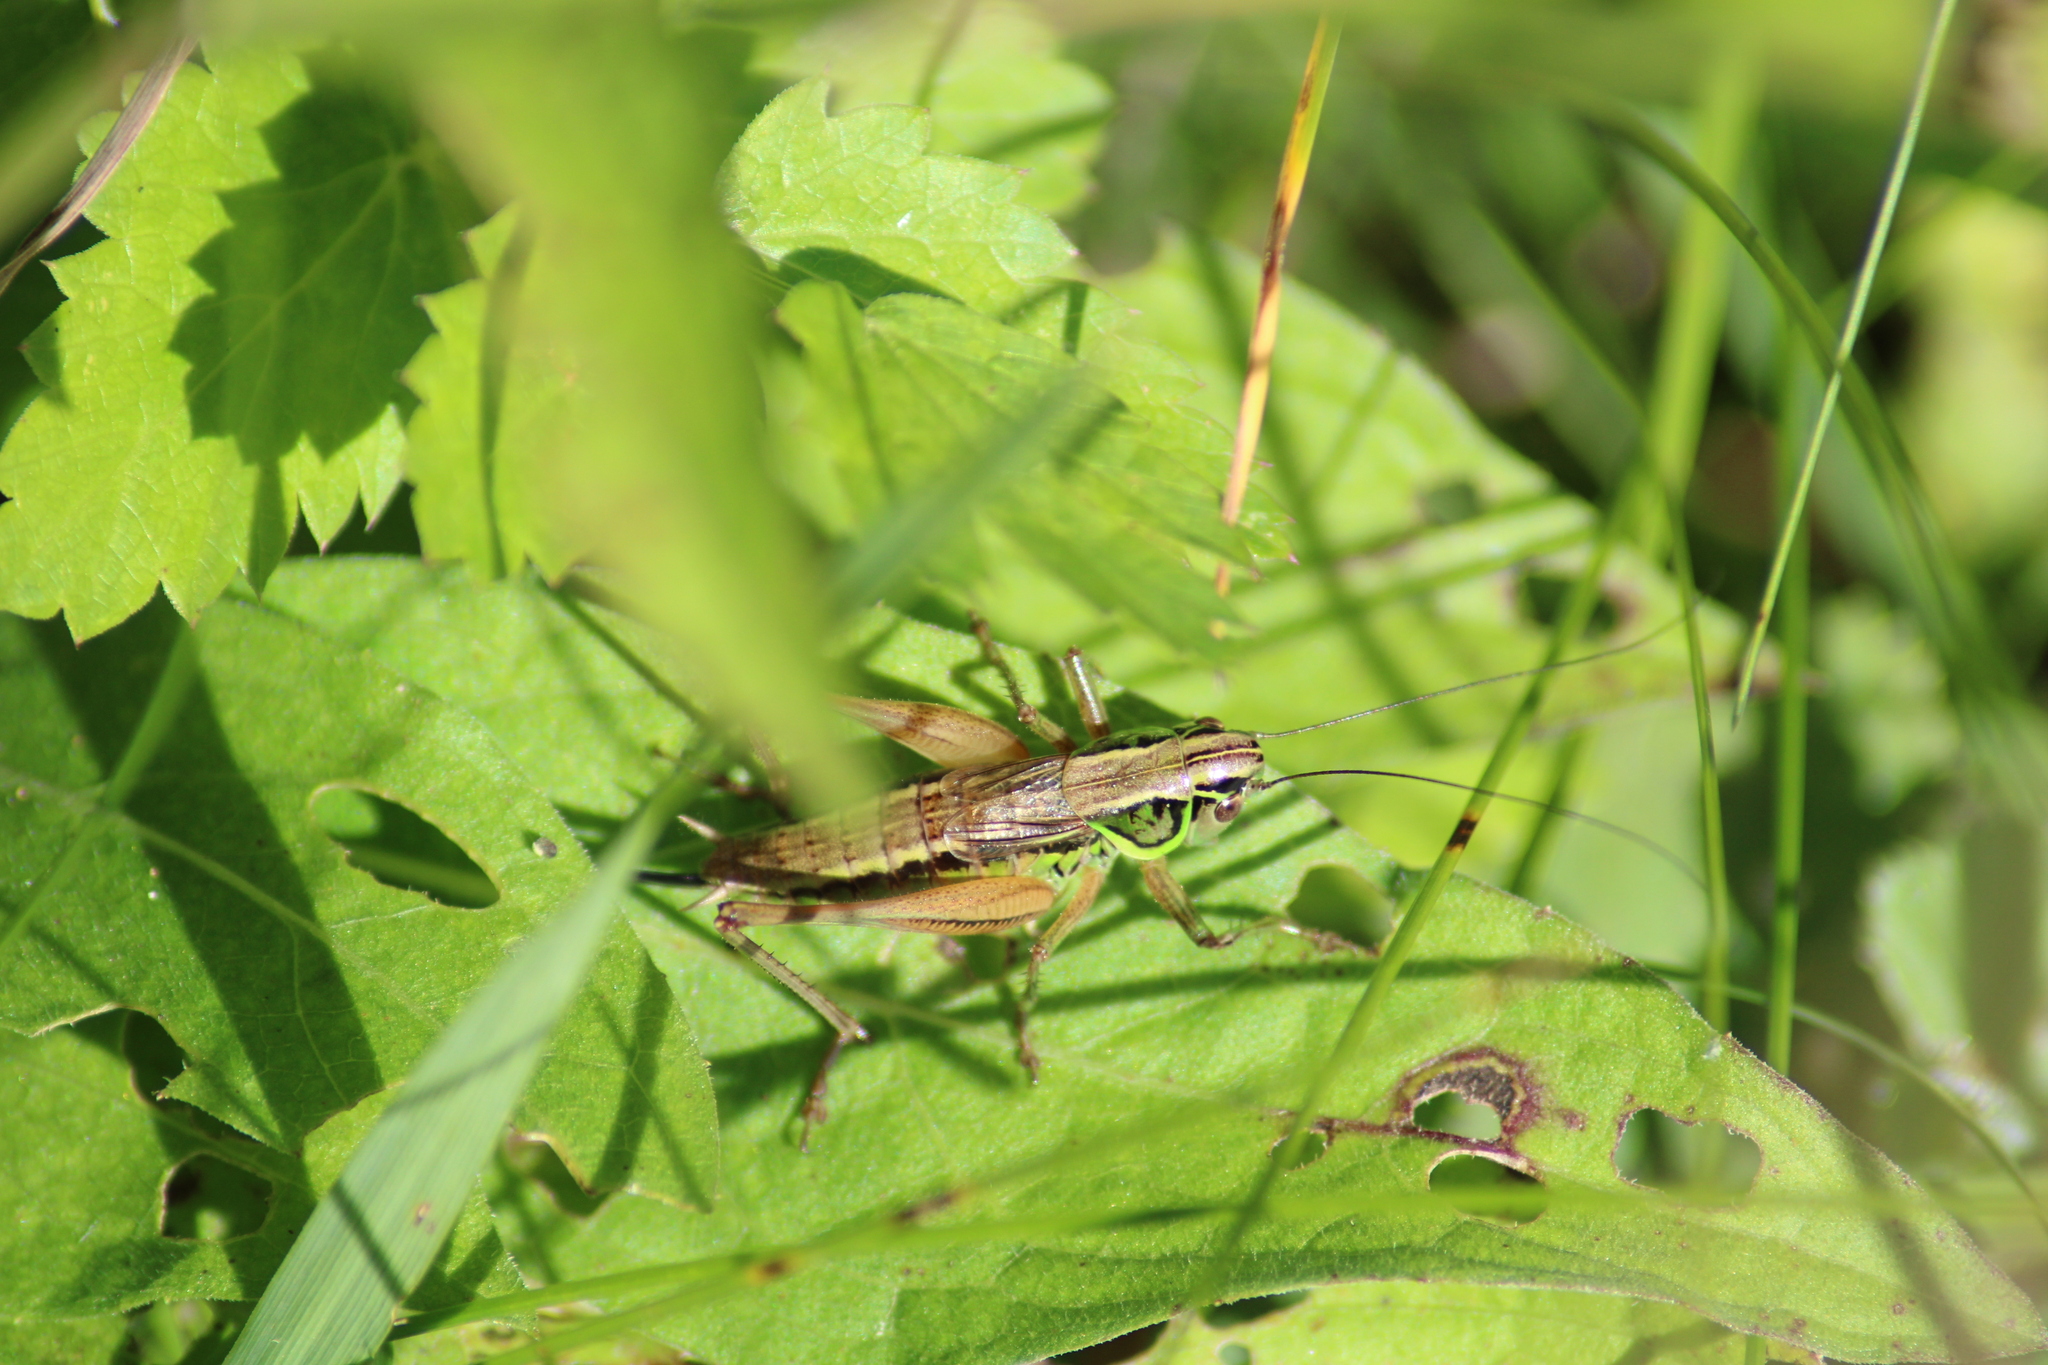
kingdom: Animalia
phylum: Arthropoda
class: Insecta
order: Orthoptera
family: Tettigoniidae
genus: Roeseliana
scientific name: Roeseliana roeselii
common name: Roesel's bush cricket
